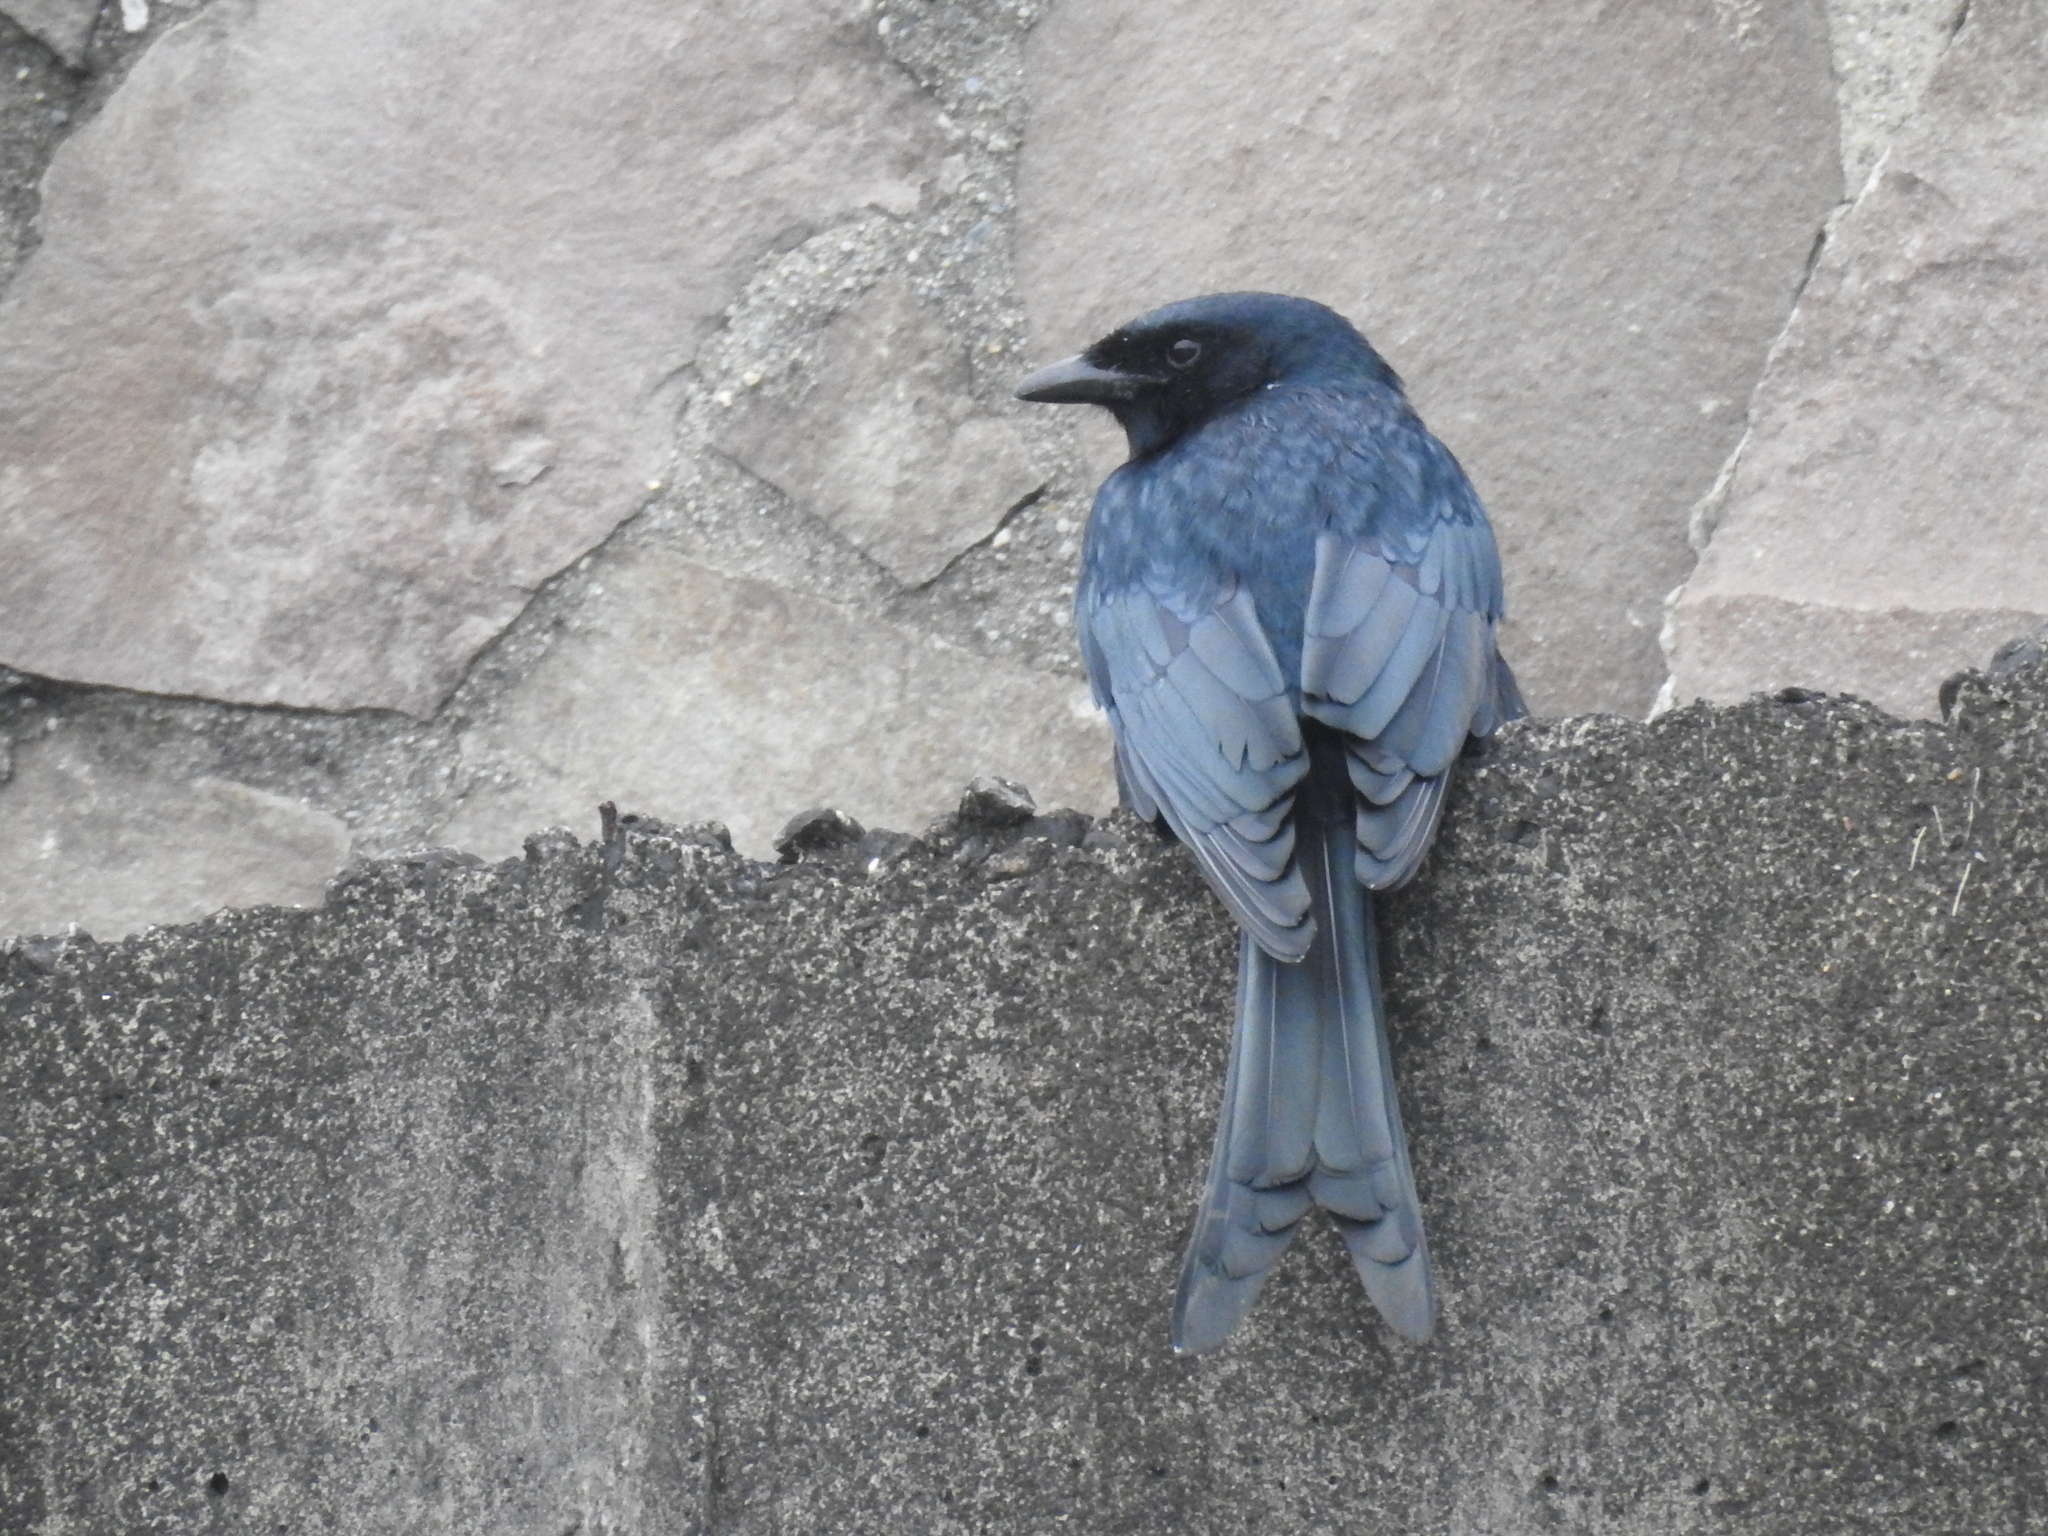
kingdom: Animalia
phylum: Chordata
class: Aves
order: Passeriformes
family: Dicruridae
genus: Dicrurus
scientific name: Dicrurus macrocercus
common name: Black drongo
